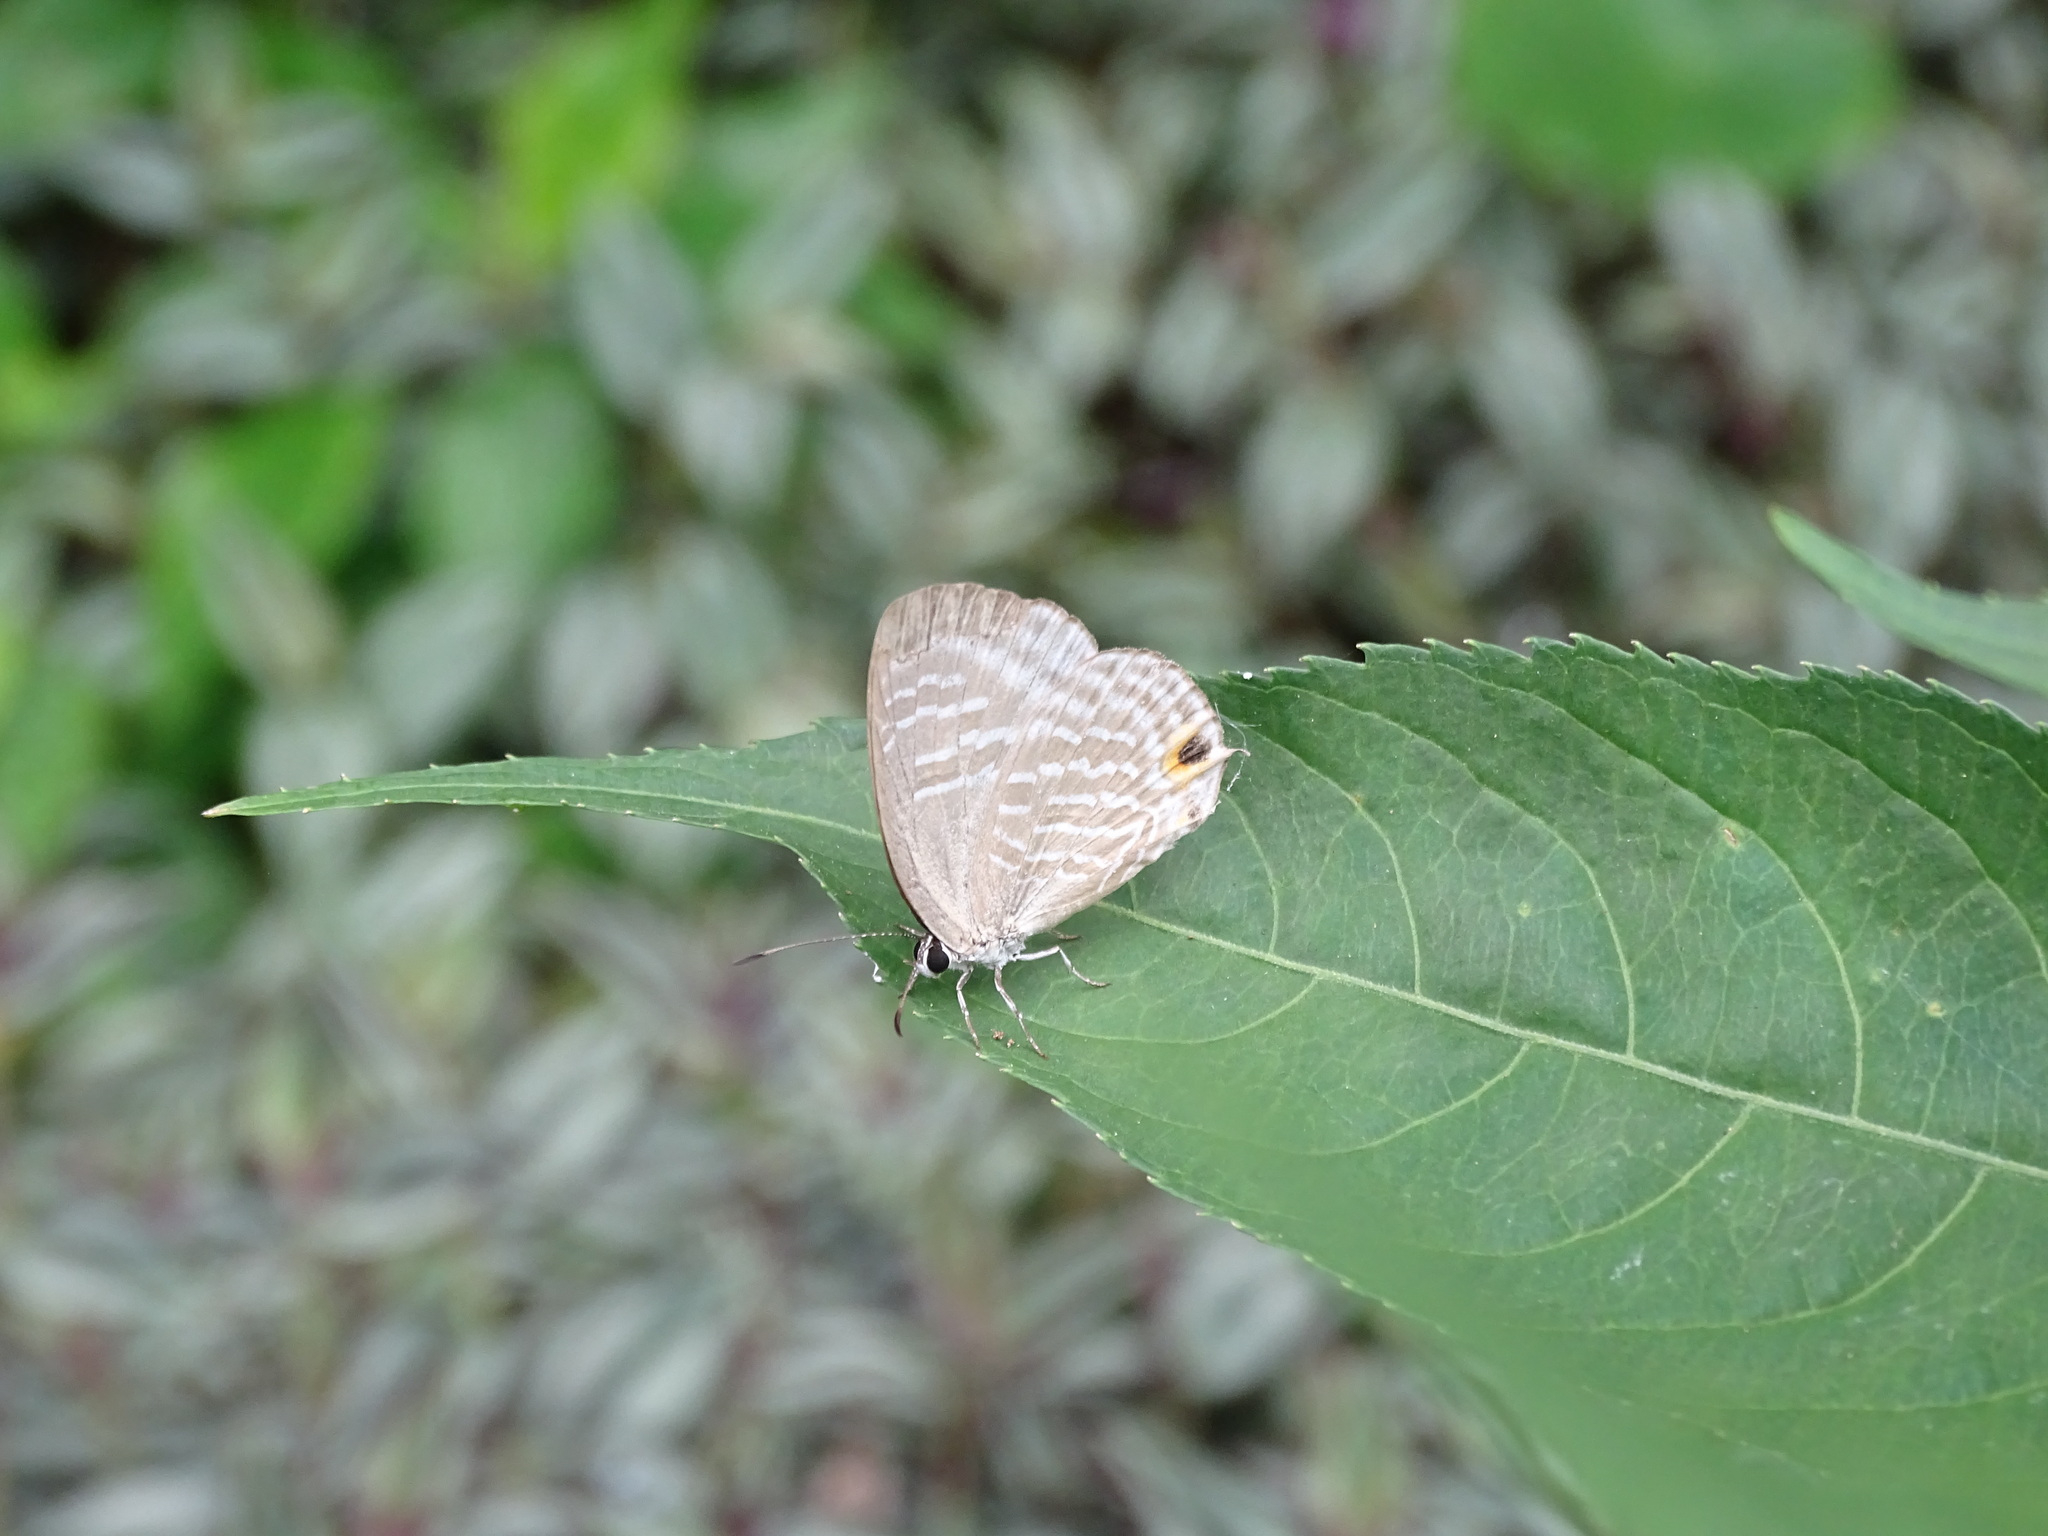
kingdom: Animalia
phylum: Arthropoda
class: Insecta
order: Lepidoptera
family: Lycaenidae
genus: Jamides
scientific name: Jamides alecto
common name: Metallic cerulean
